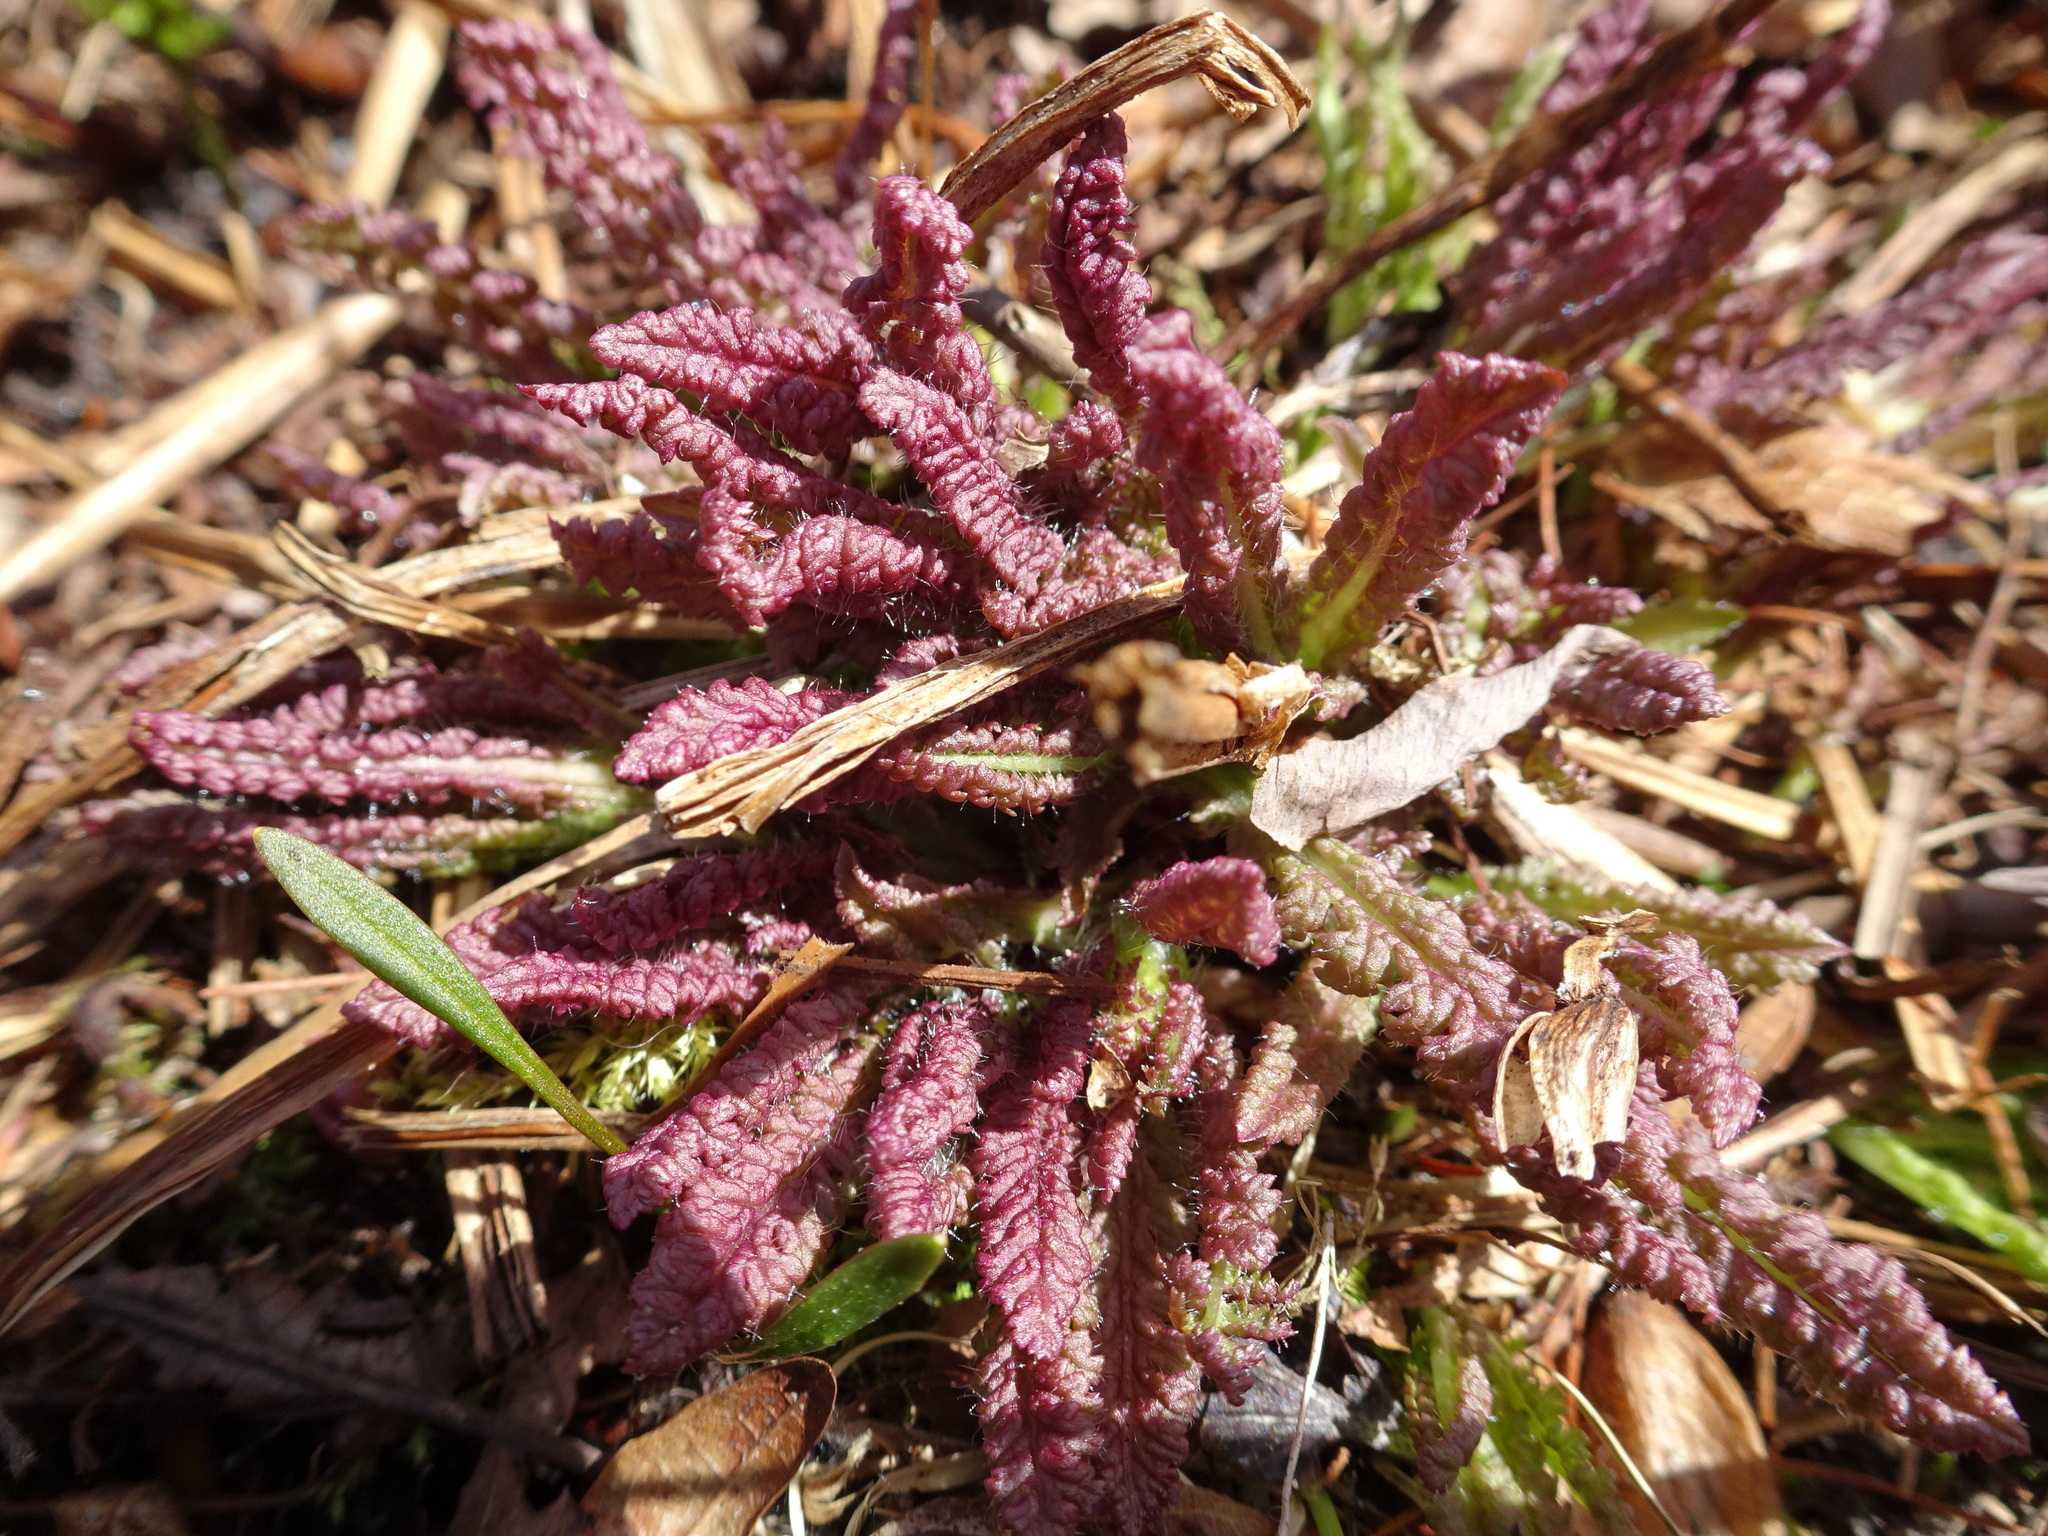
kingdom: Plantae
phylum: Tracheophyta
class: Magnoliopsida
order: Lamiales
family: Orobanchaceae
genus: Pedicularis
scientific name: Pedicularis canadensis
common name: Early lousewort
